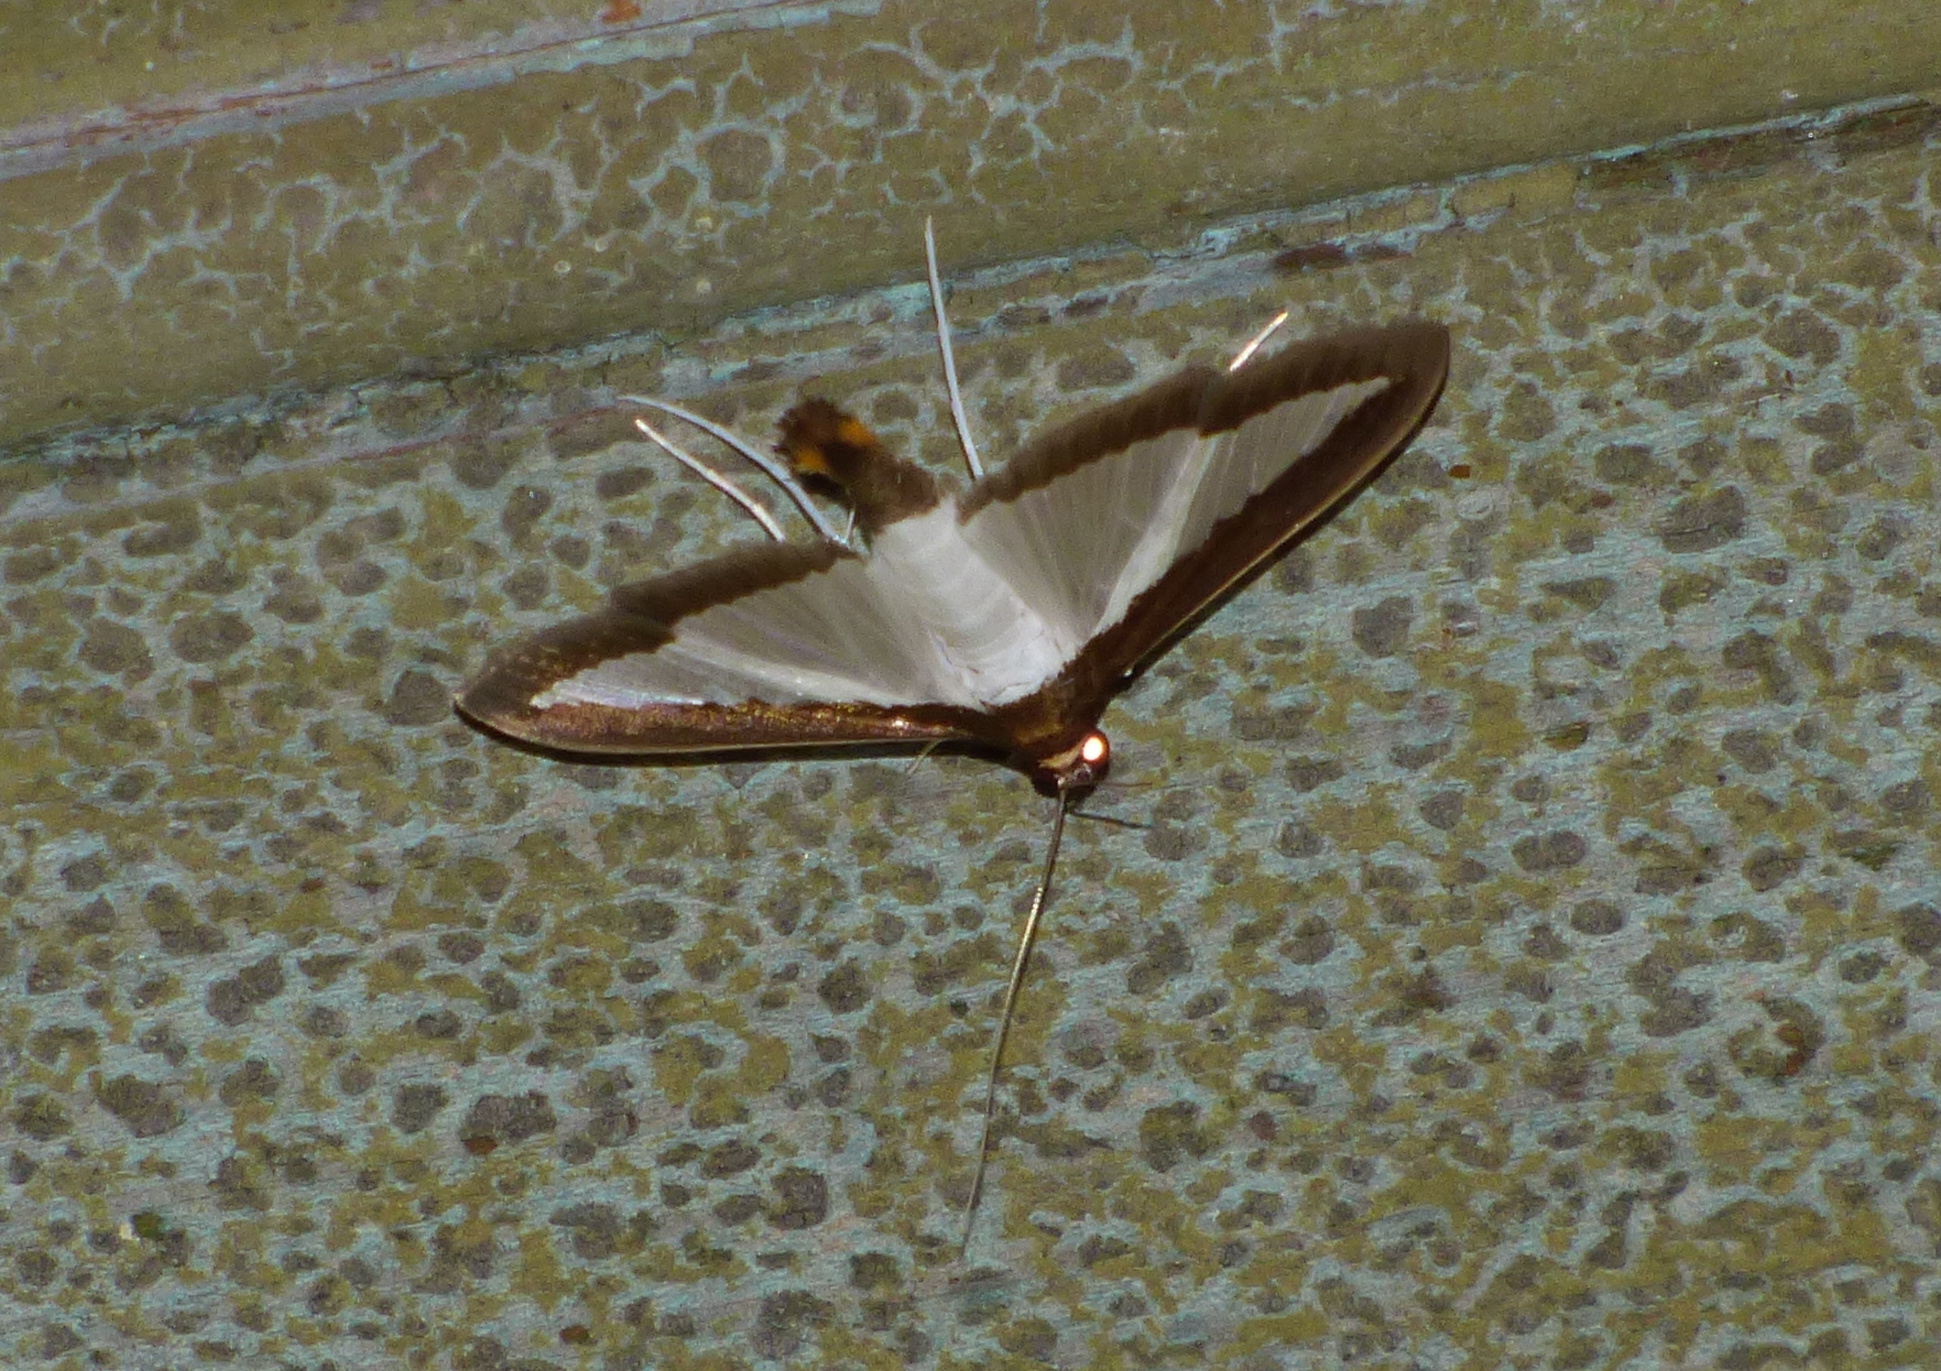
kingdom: Animalia
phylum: Arthropoda
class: Insecta
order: Lepidoptera
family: Crambidae
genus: Diaphania
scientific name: Diaphania hyalinata
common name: Melonworm
